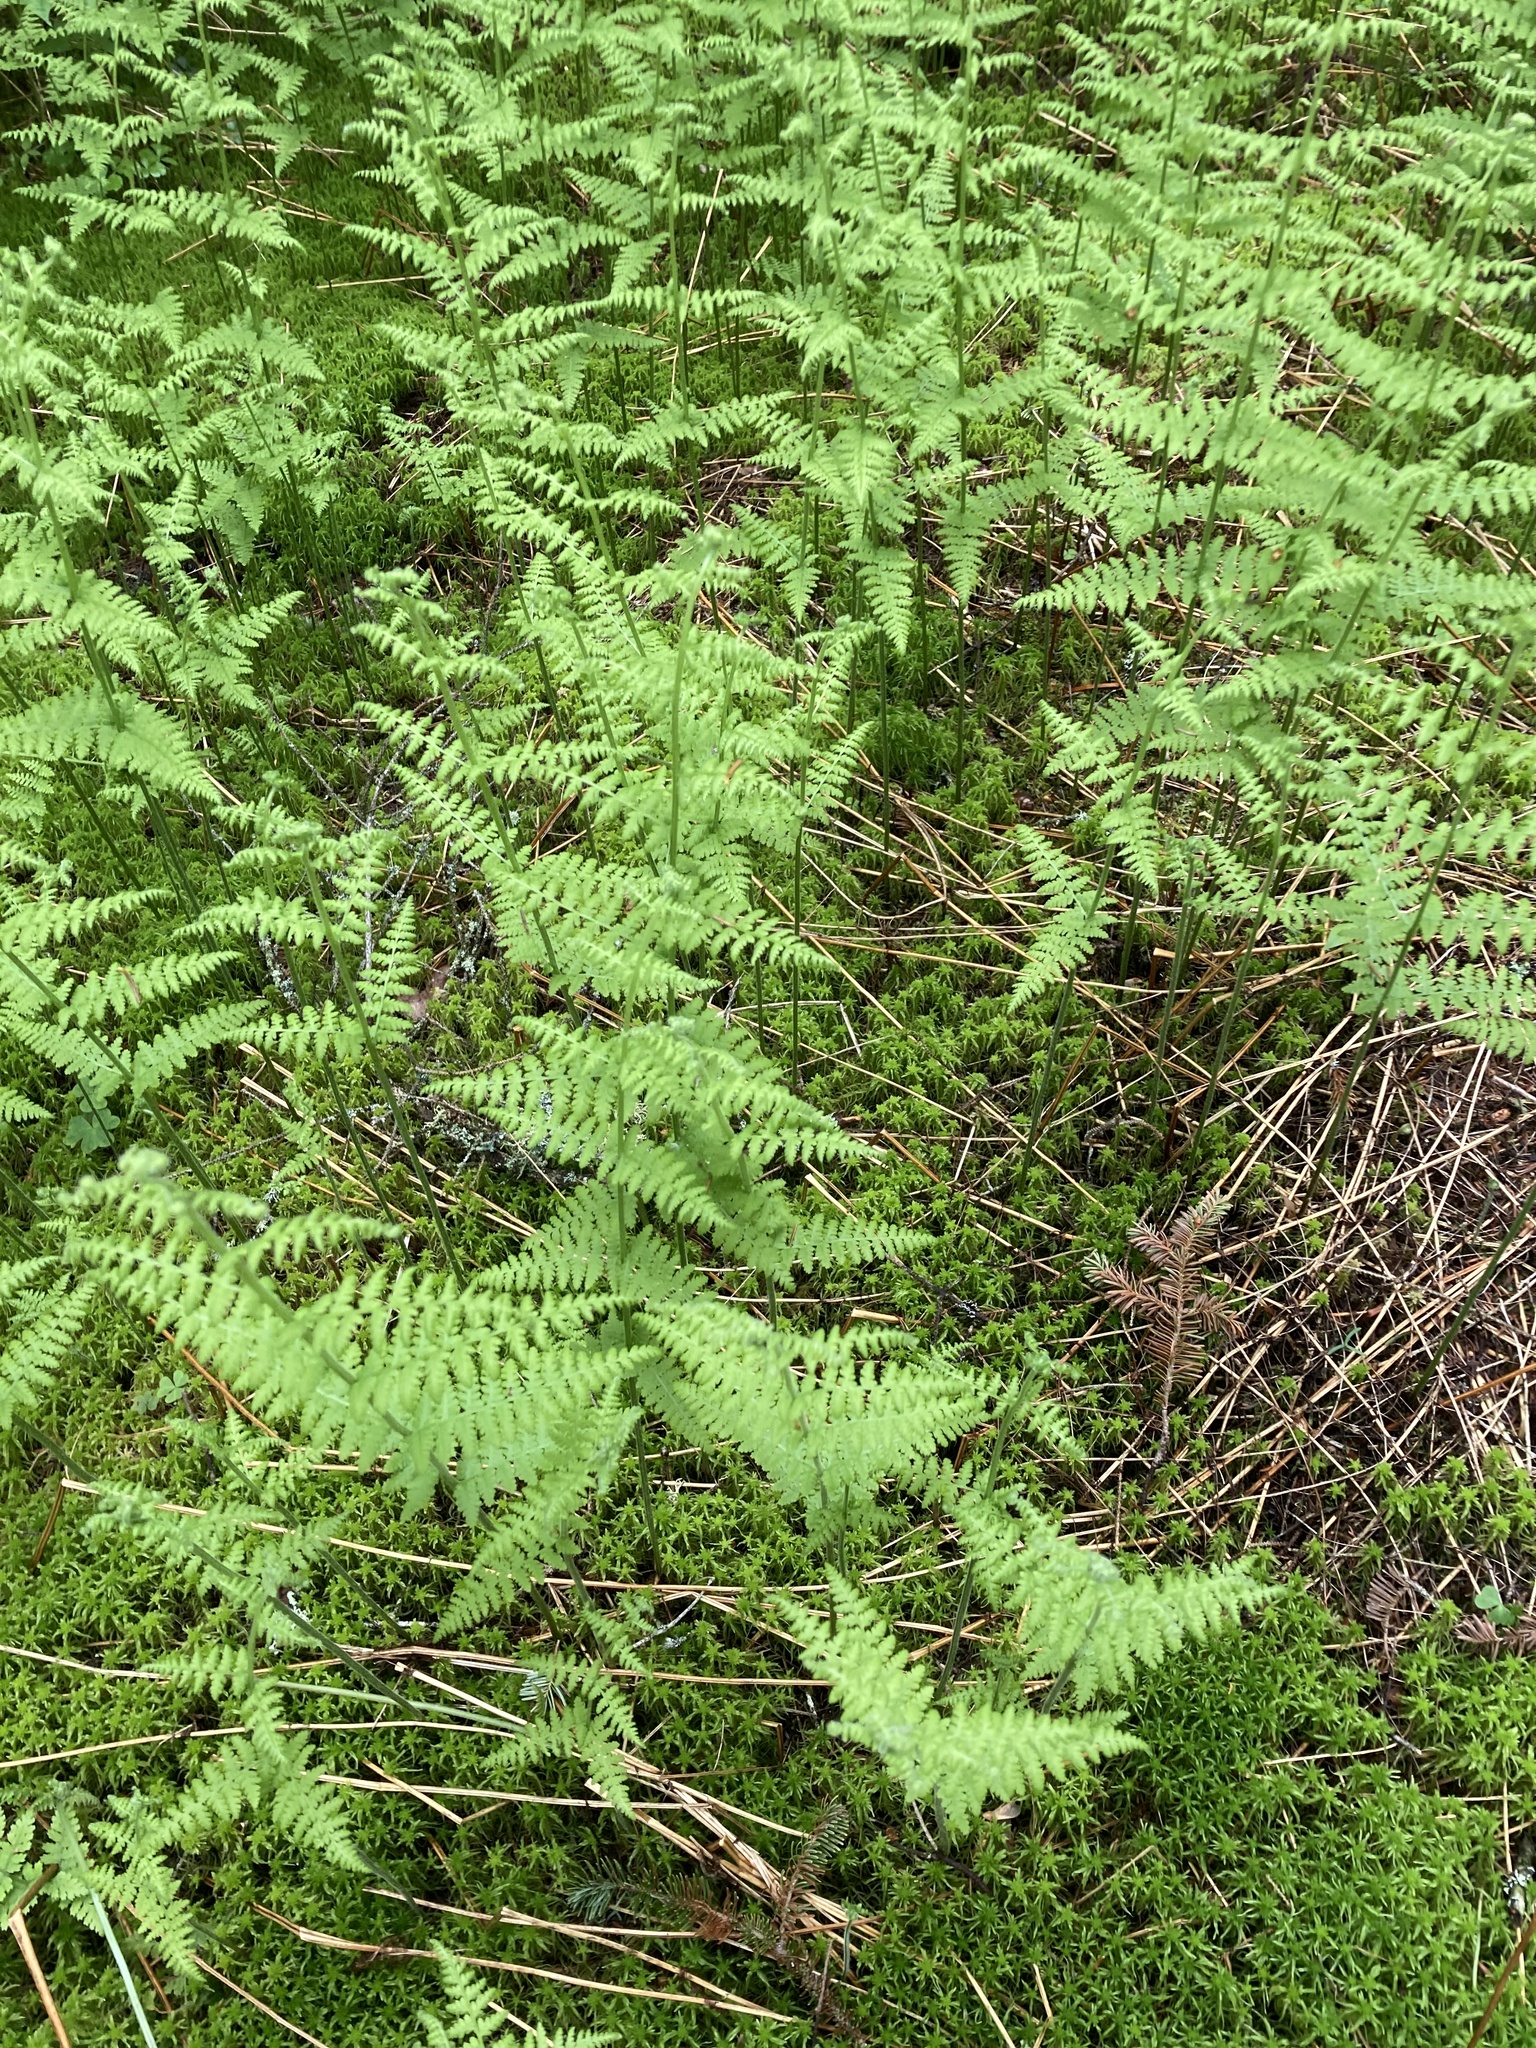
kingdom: Plantae
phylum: Tracheophyta
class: Polypodiopsida
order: Polypodiales
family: Dennstaedtiaceae
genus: Sitobolium
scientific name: Sitobolium punctilobum
